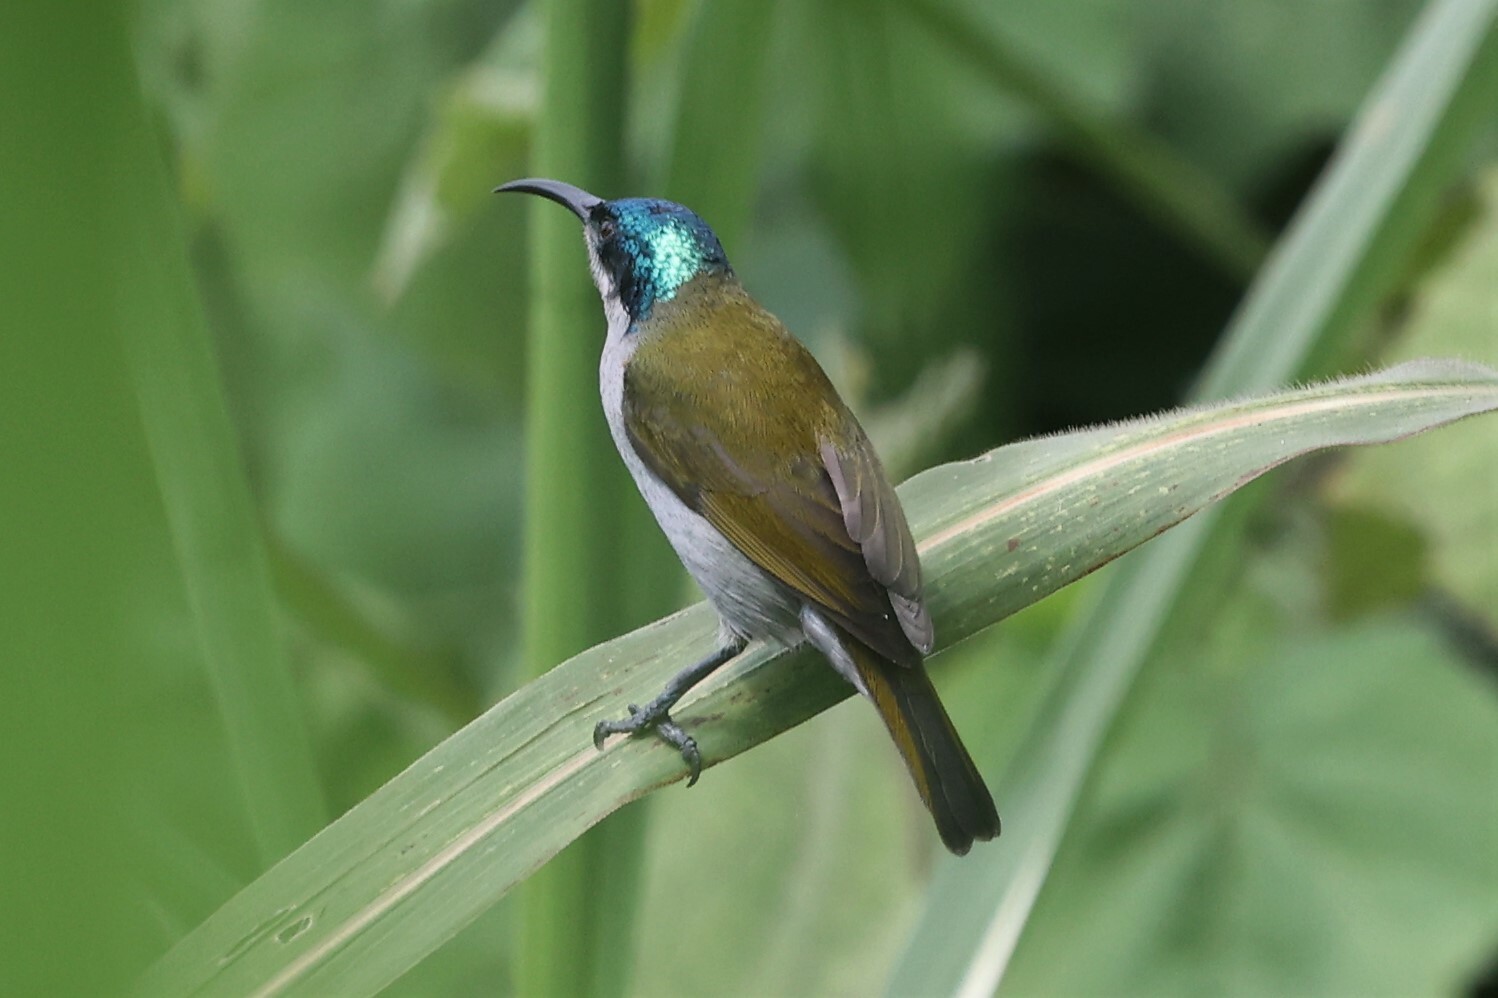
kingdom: Animalia
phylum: Chordata
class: Aves
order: Passeriformes
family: Nectariniidae
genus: Cyanomitra
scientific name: Cyanomitra verticalis
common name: Green-headed sunbird
